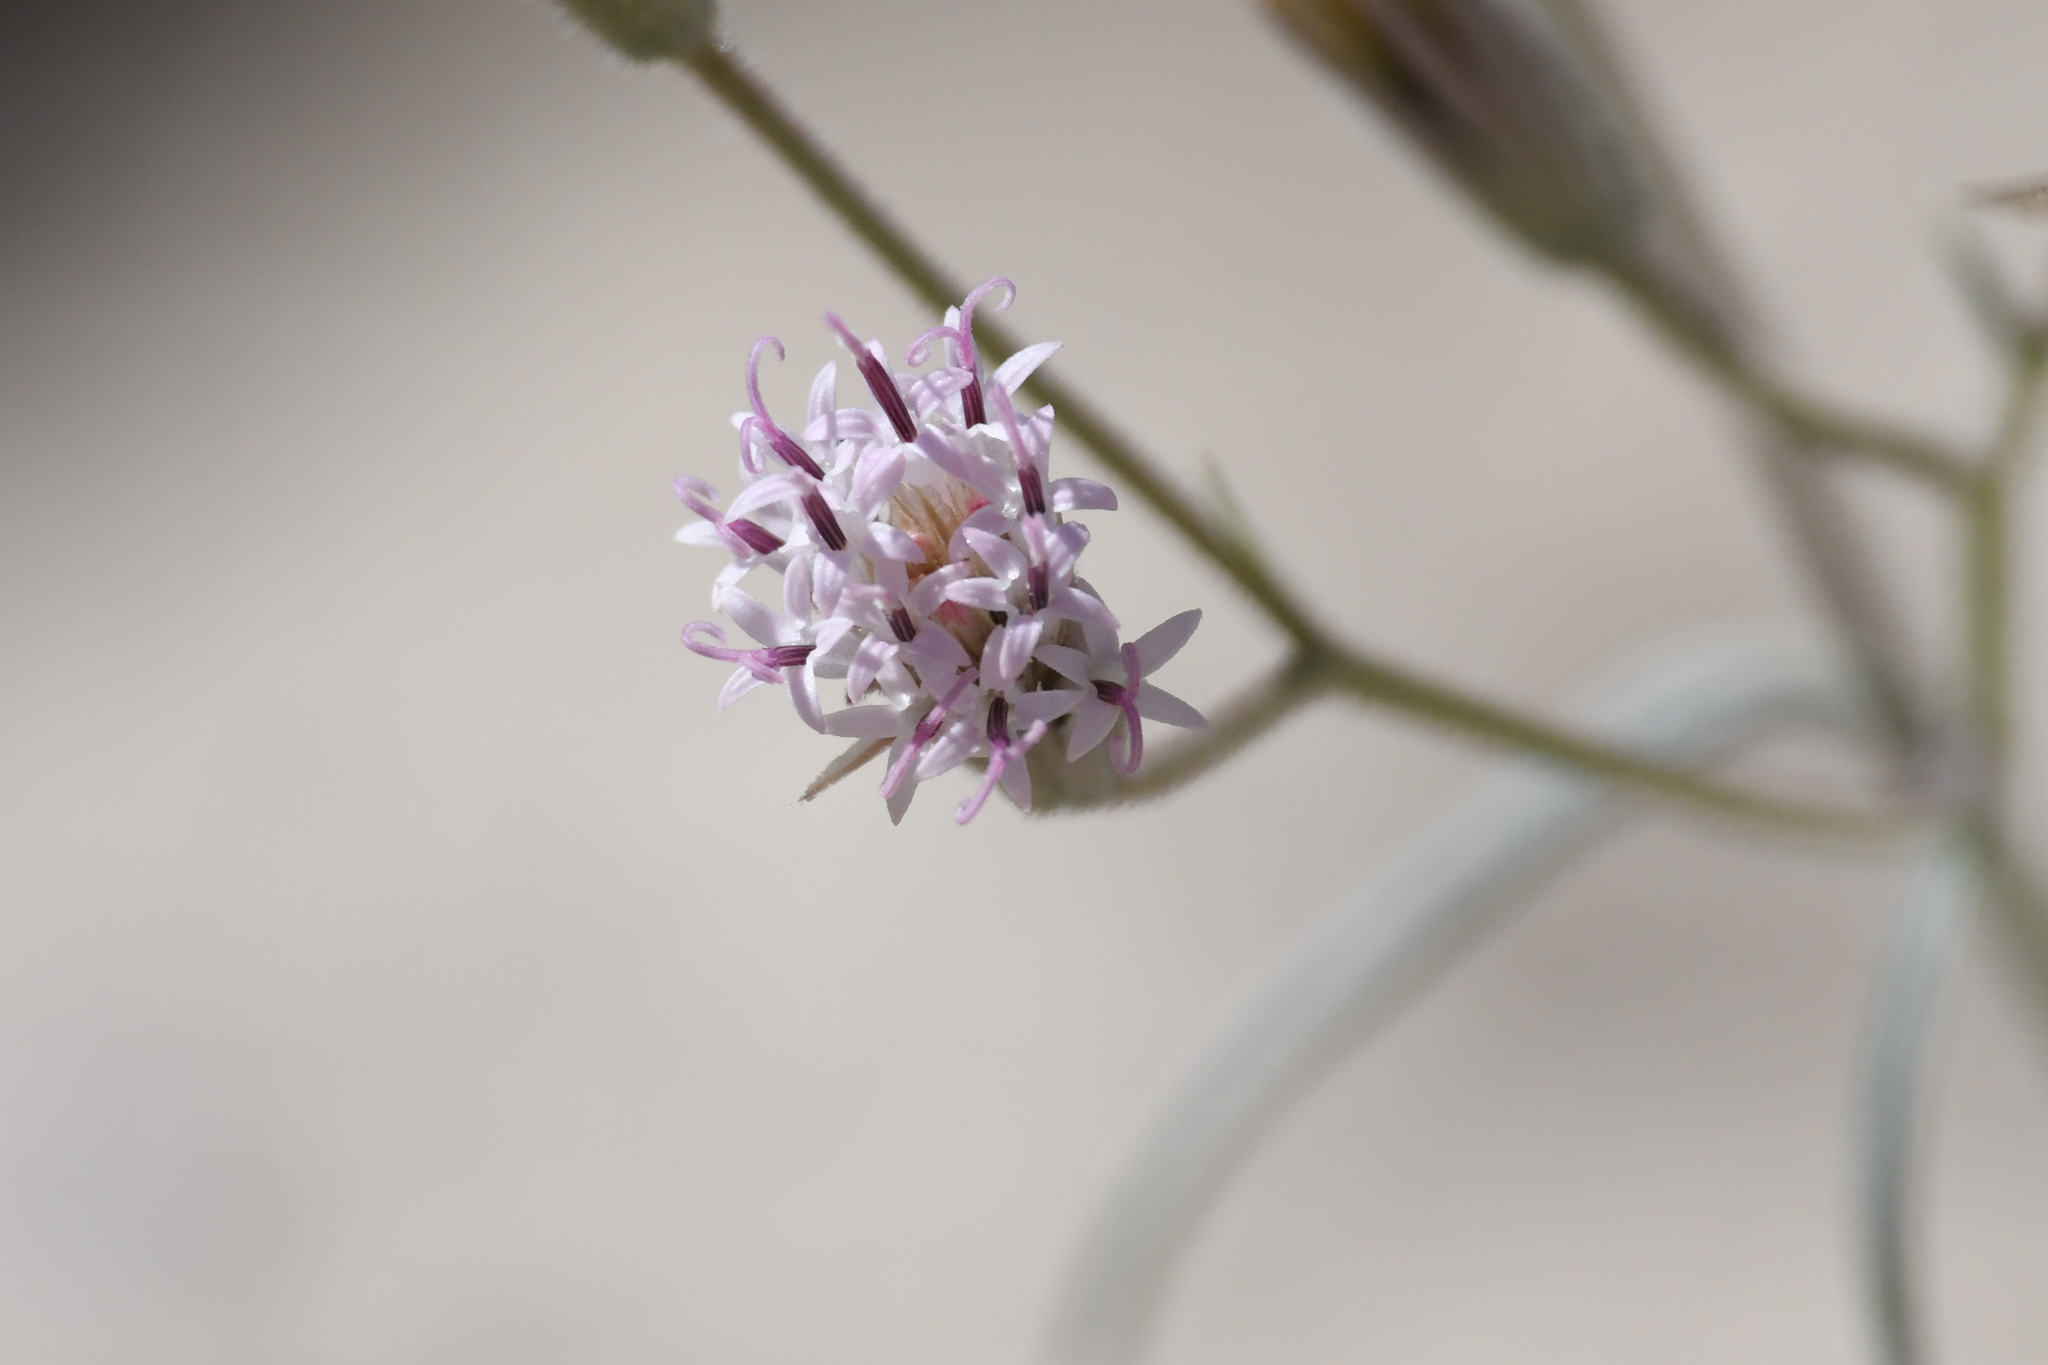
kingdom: Plantae
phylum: Tracheophyta
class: Magnoliopsida
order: Asterales
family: Asteraceae
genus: Palafoxia
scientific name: Palafoxia arida
